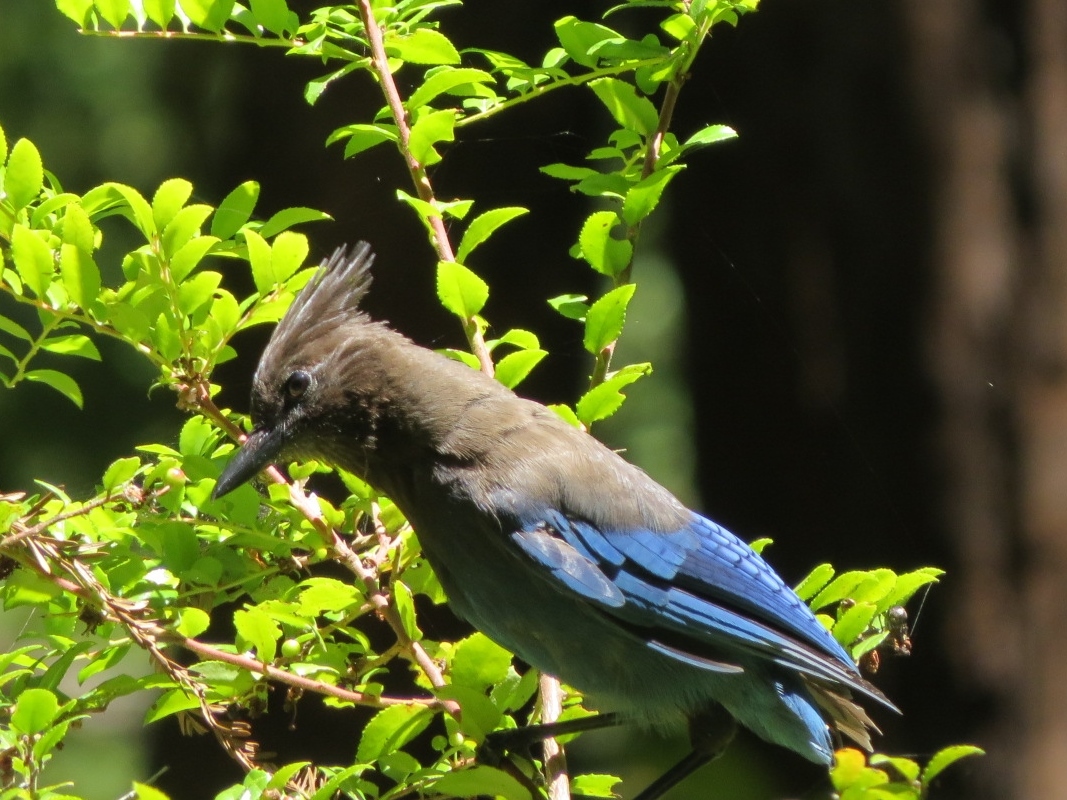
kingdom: Animalia
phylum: Chordata
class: Aves
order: Passeriformes
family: Corvidae
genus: Cyanocitta
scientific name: Cyanocitta stelleri
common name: Steller's jay
